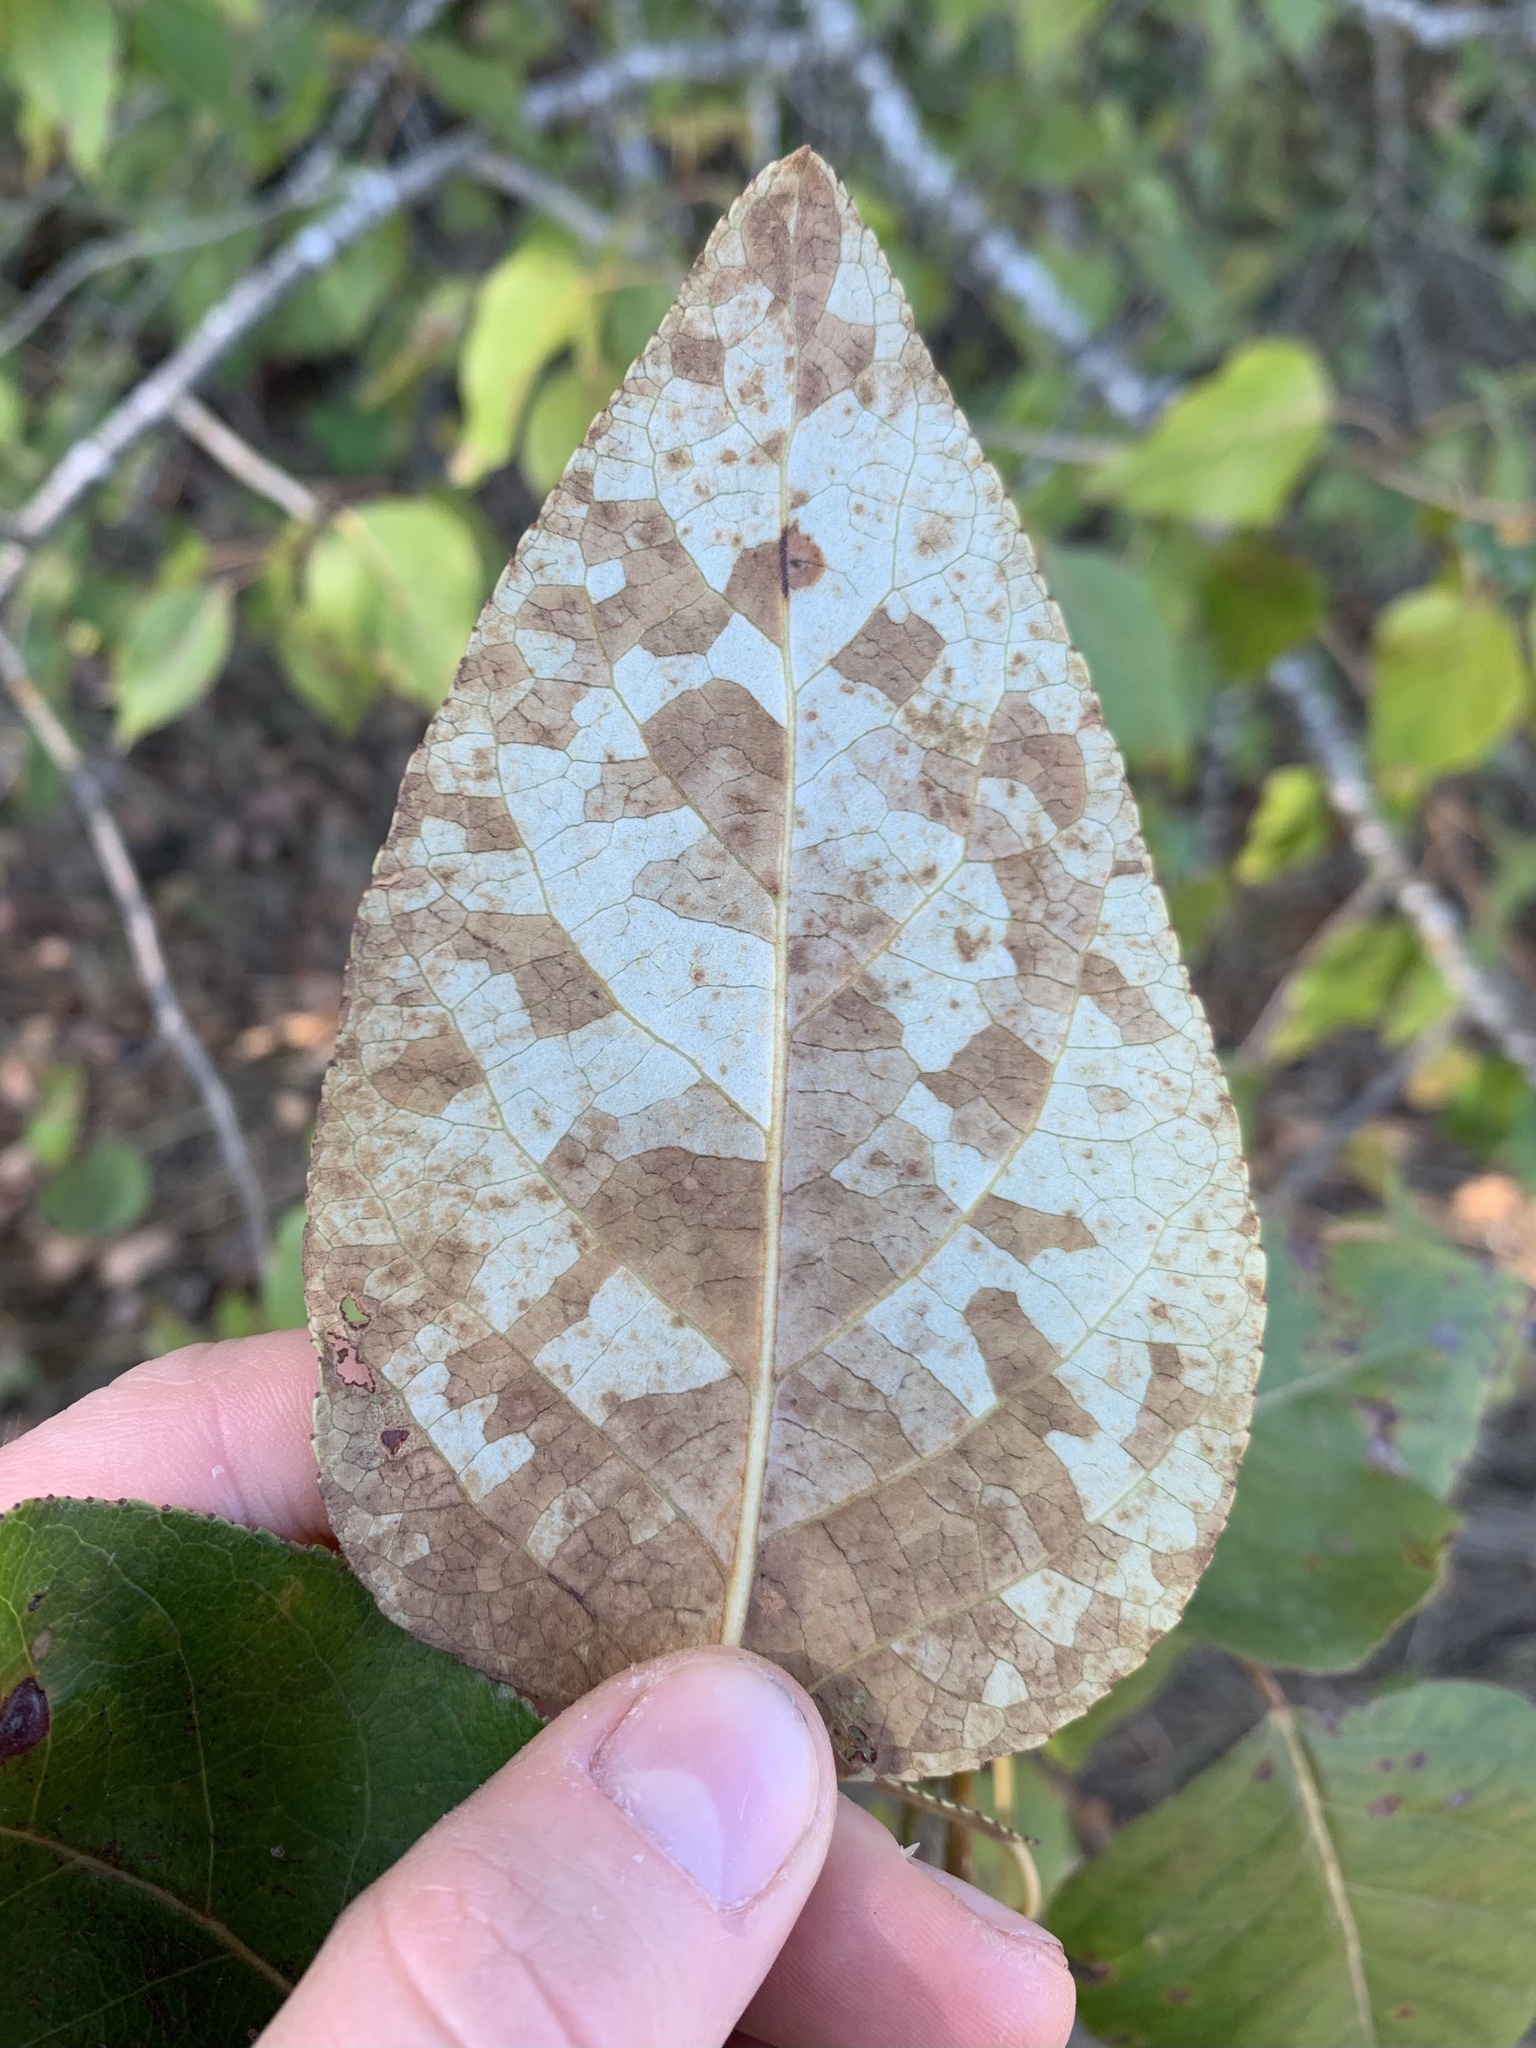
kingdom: Plantae
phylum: Tracheophyta
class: Magnoliopsida
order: Malpighiales
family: Salicaceae
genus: Populus
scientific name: Populus trichocarpa
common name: Black cottonwood
